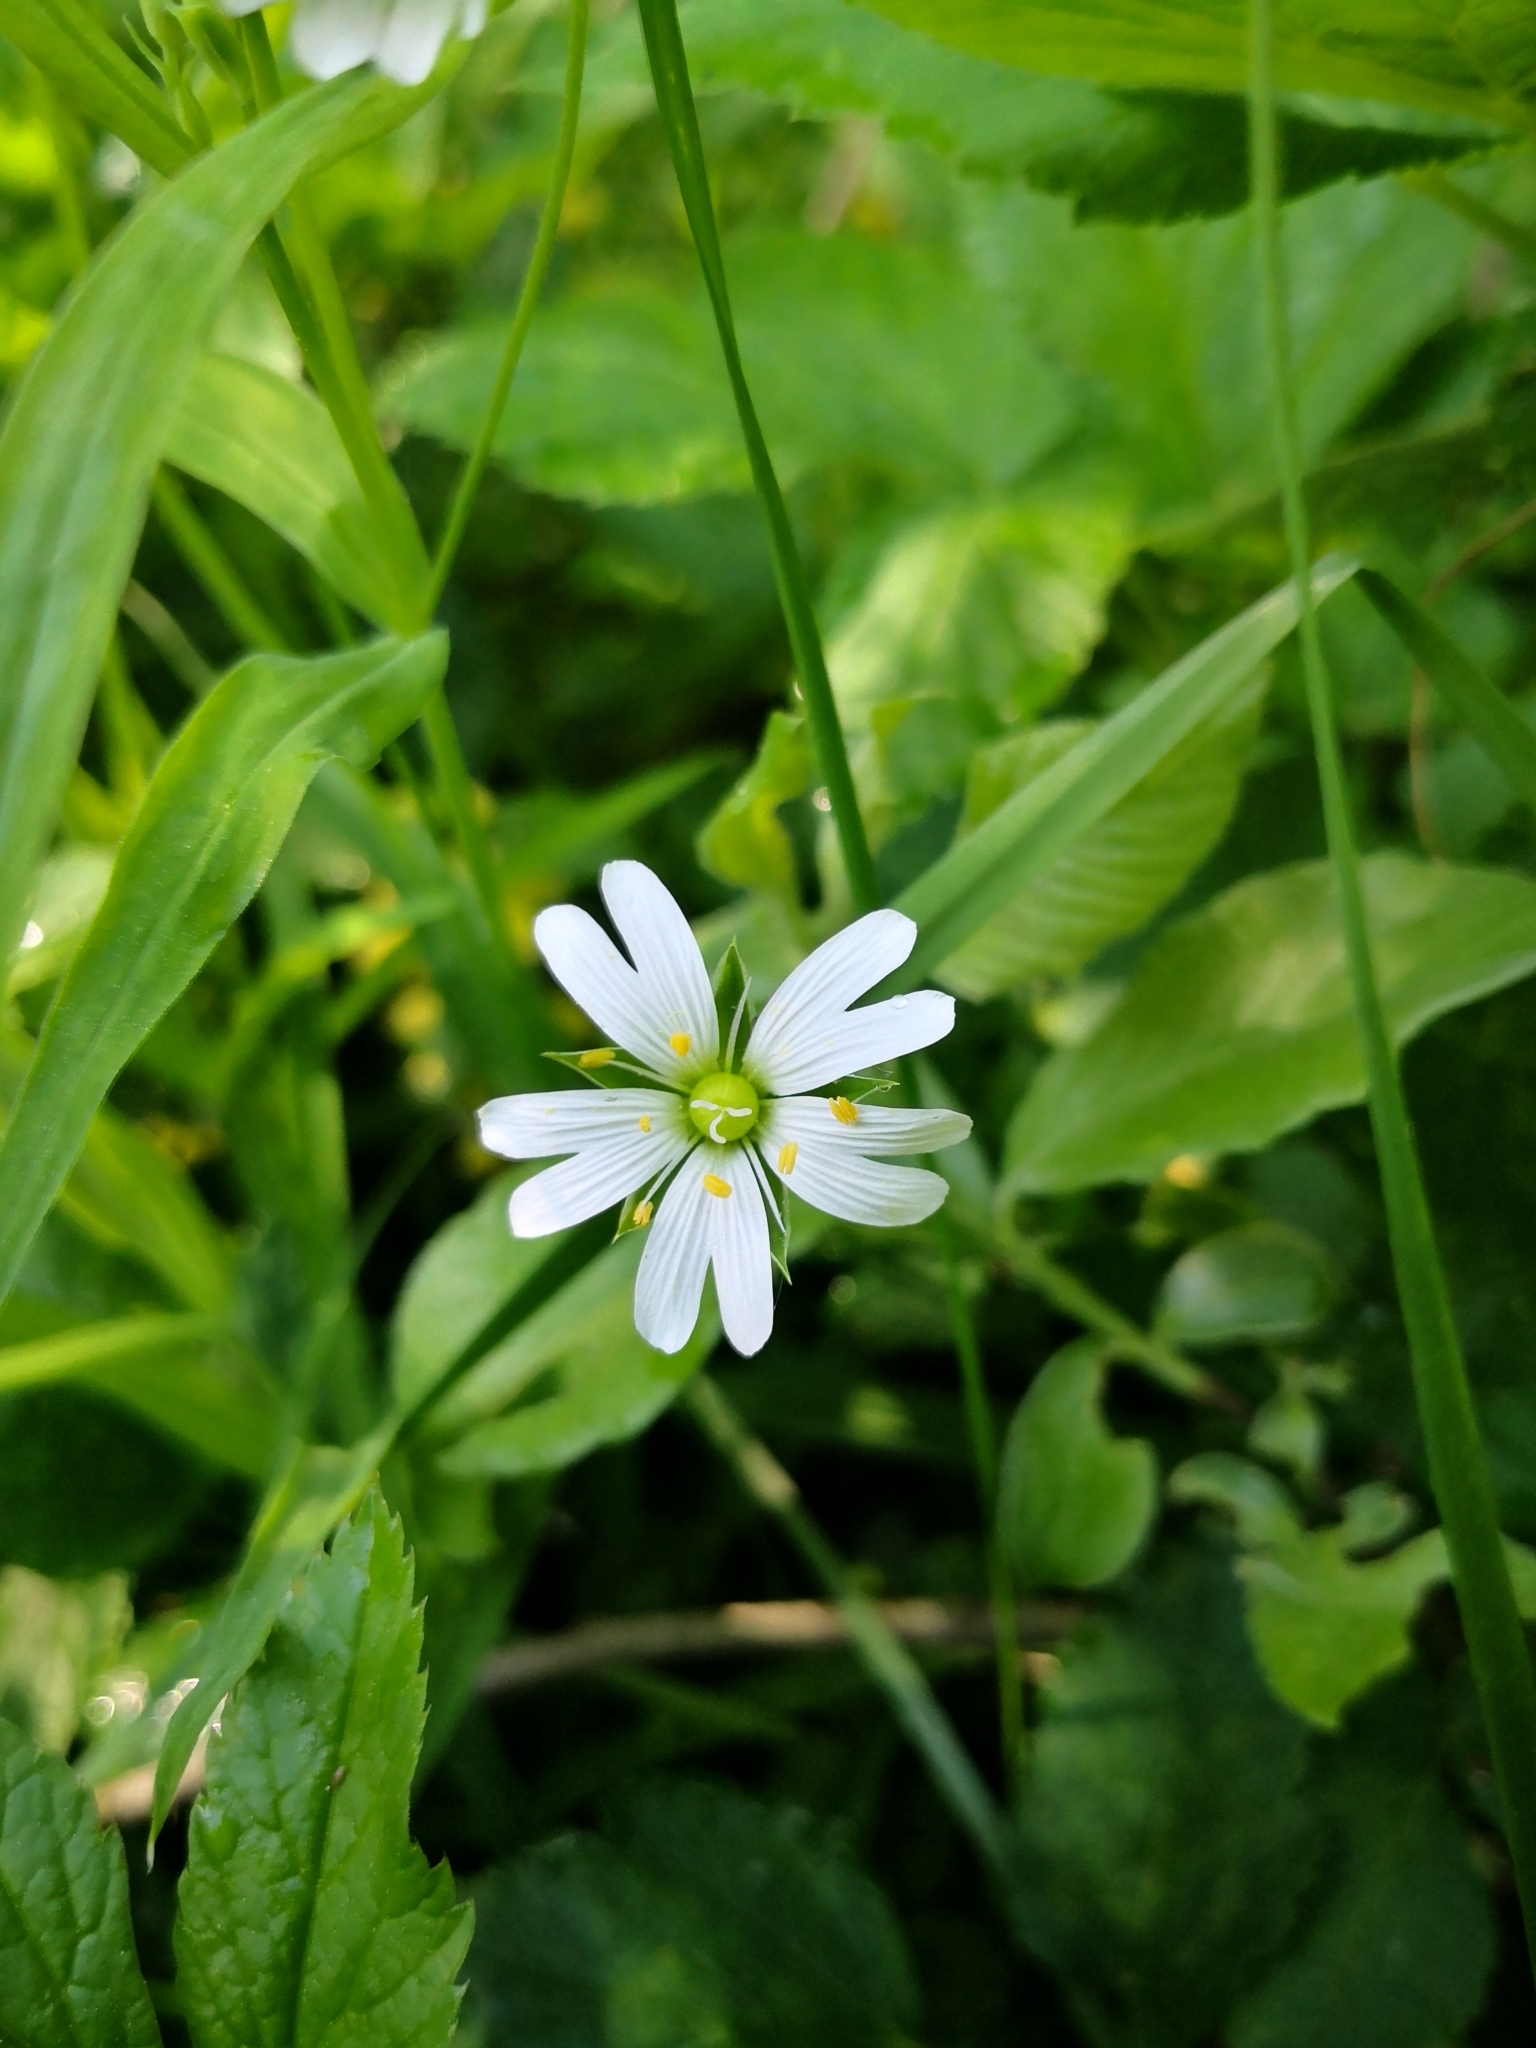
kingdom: Plantae
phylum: Tracheophyta
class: Magnoliopsida
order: Caryophyllales
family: Caryophyllaceae
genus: Rabelera
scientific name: Rabelera holostea
